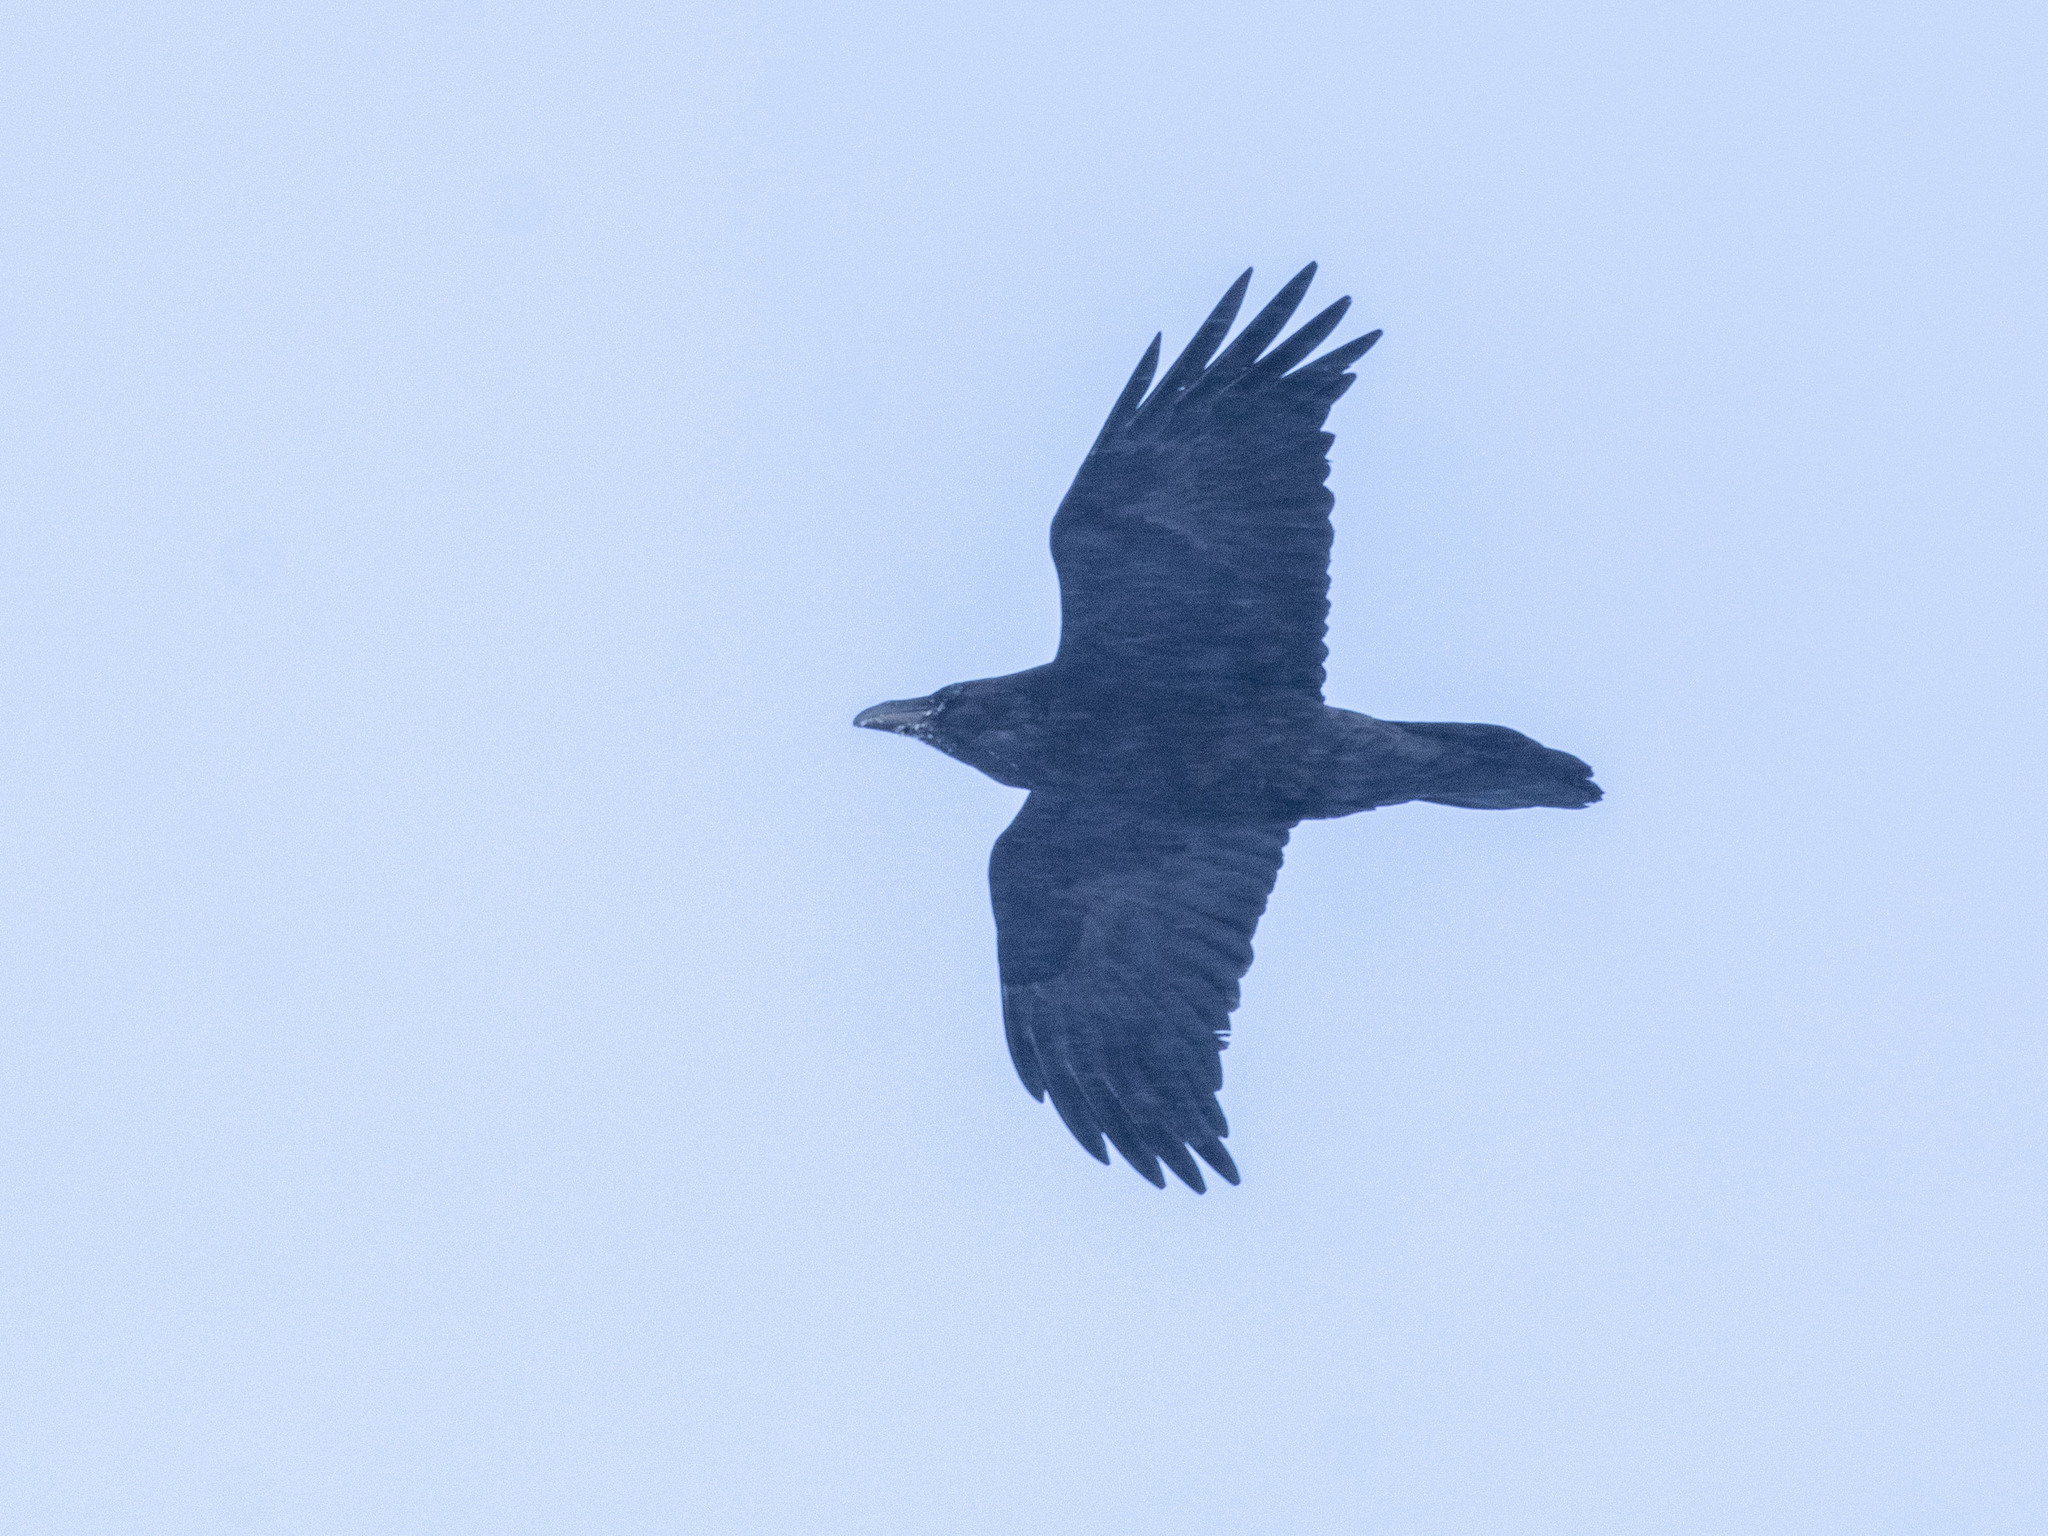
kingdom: Animalia
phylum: Chordata
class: Aves
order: Passeriformes
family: Corvidae
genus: Corvus
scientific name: Corvus corax
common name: Common raven
